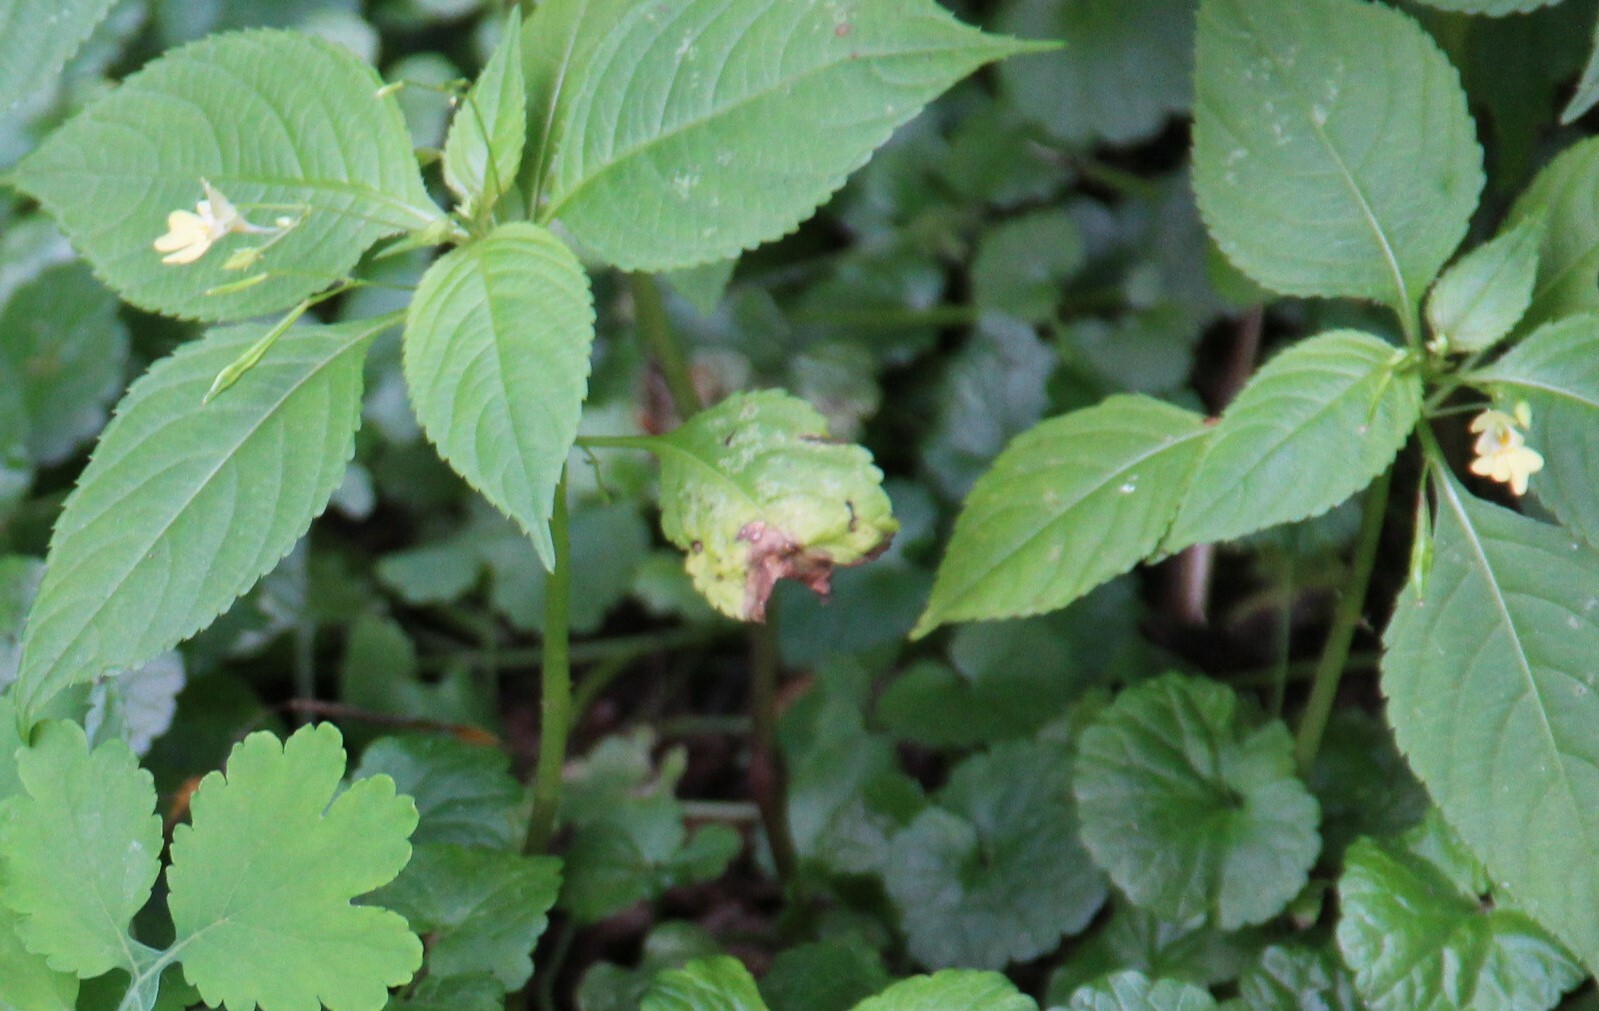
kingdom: Plantae
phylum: Tracheophyta
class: Magnoliopsida
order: Ericales
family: Balsaminaceae
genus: Impatiens
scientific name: Impatiens parviflora
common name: Small balsam
